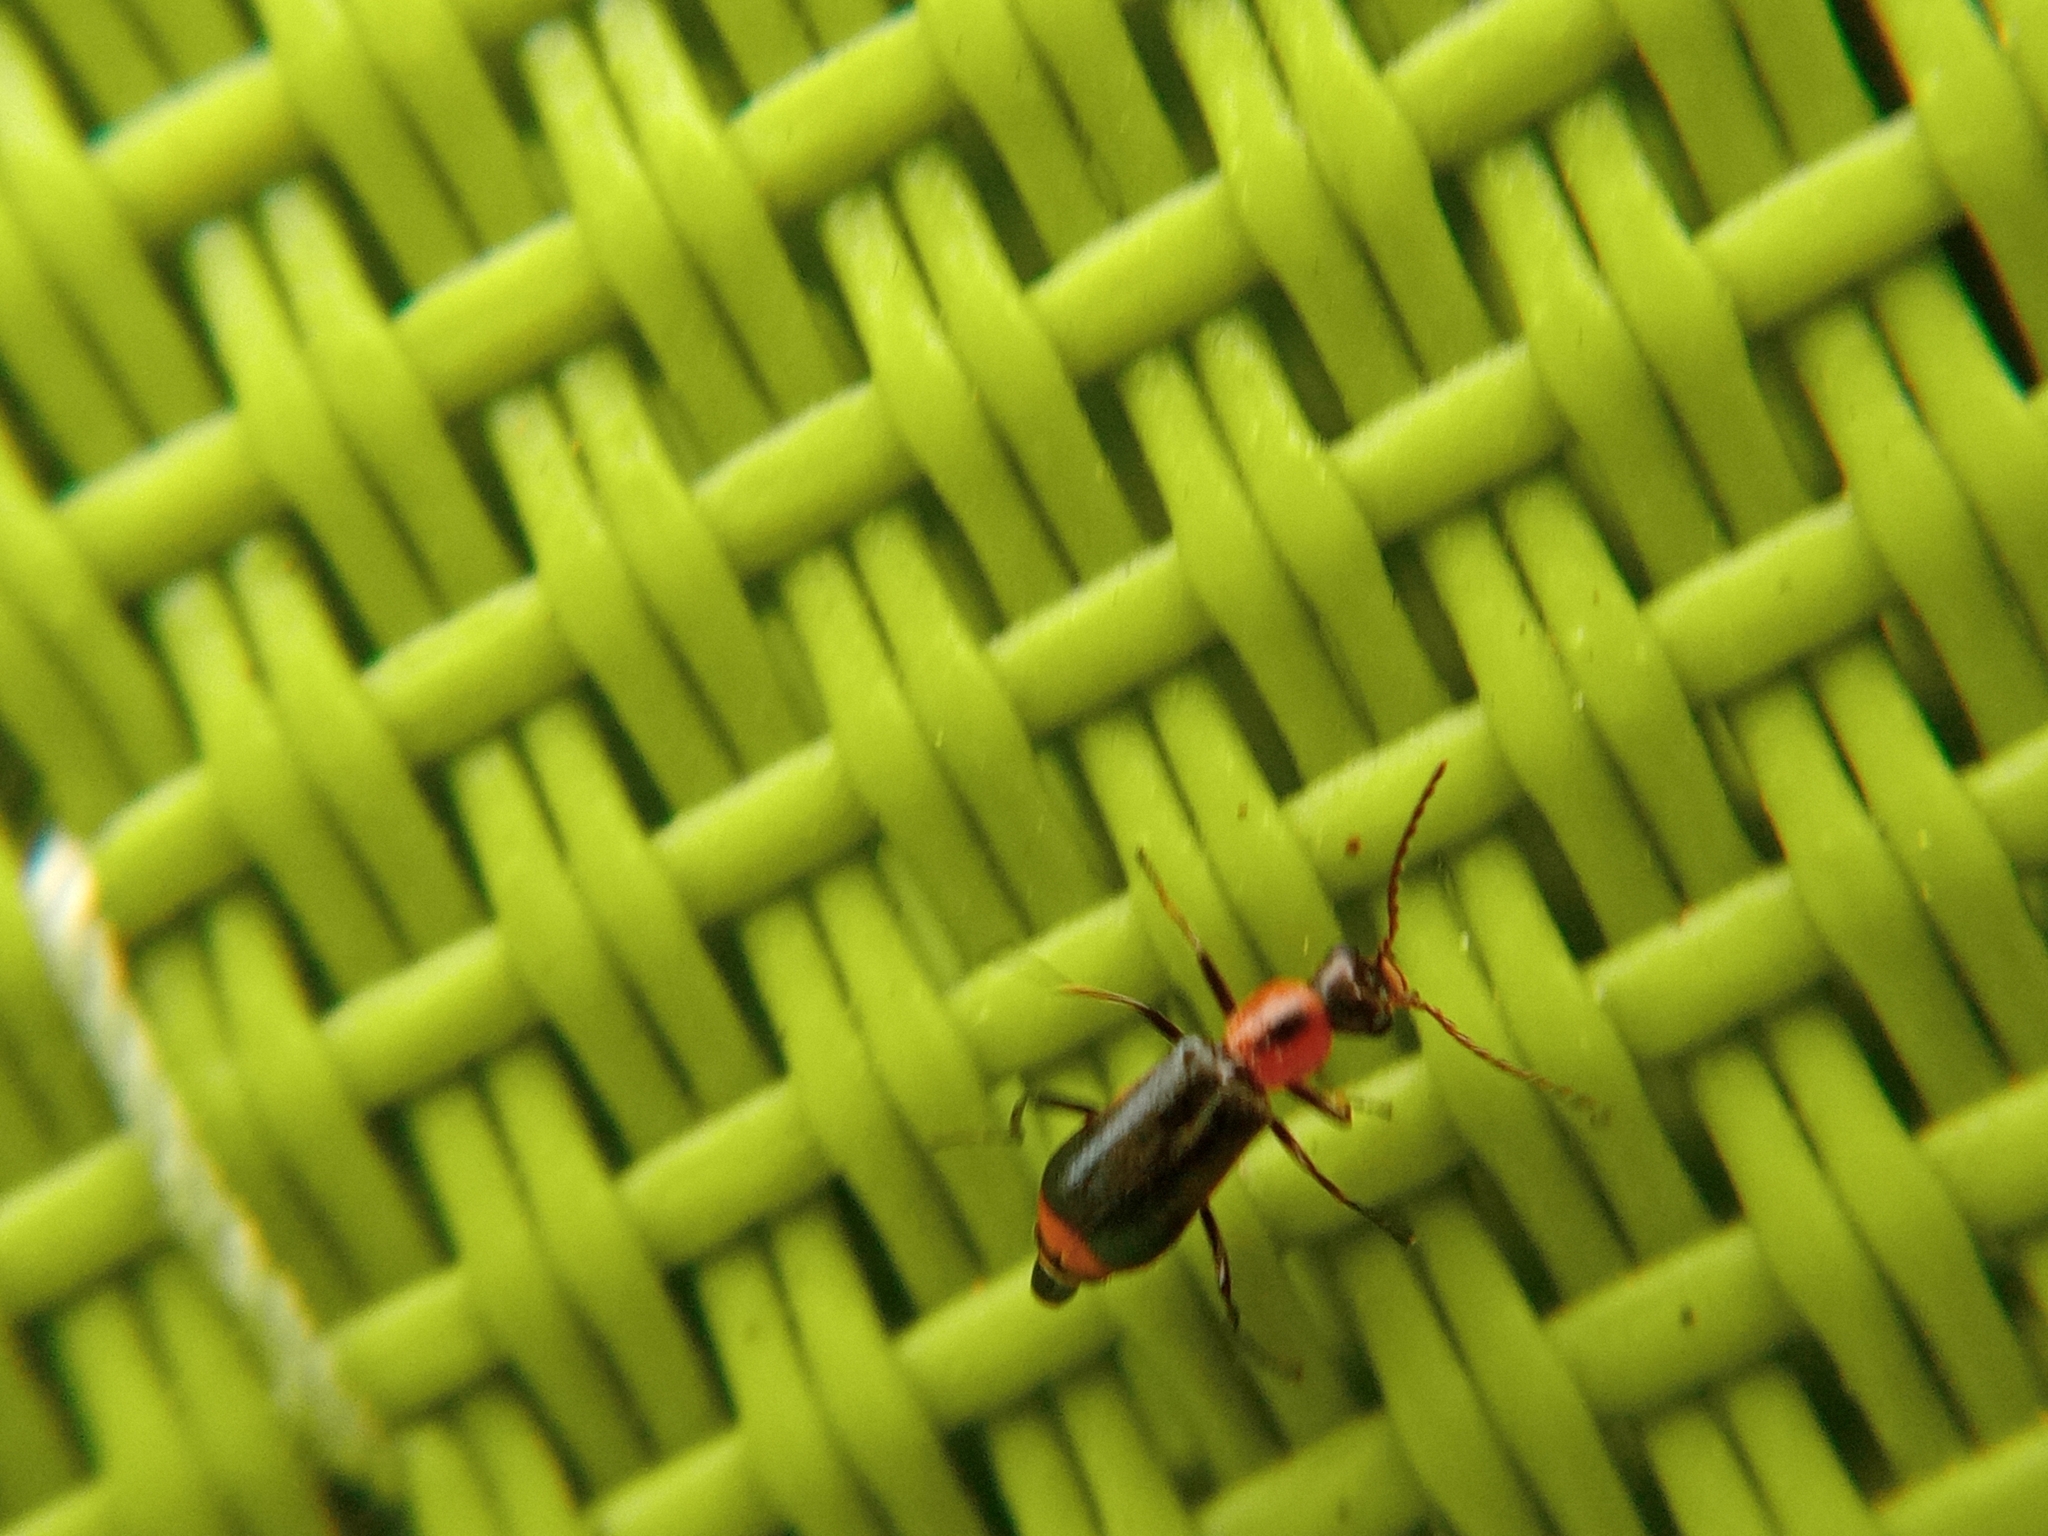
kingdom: Animalia
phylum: Arthropoda
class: Insecta
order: Coleoptera
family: Malachiidae
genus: Attalus
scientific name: Attalus minimus
